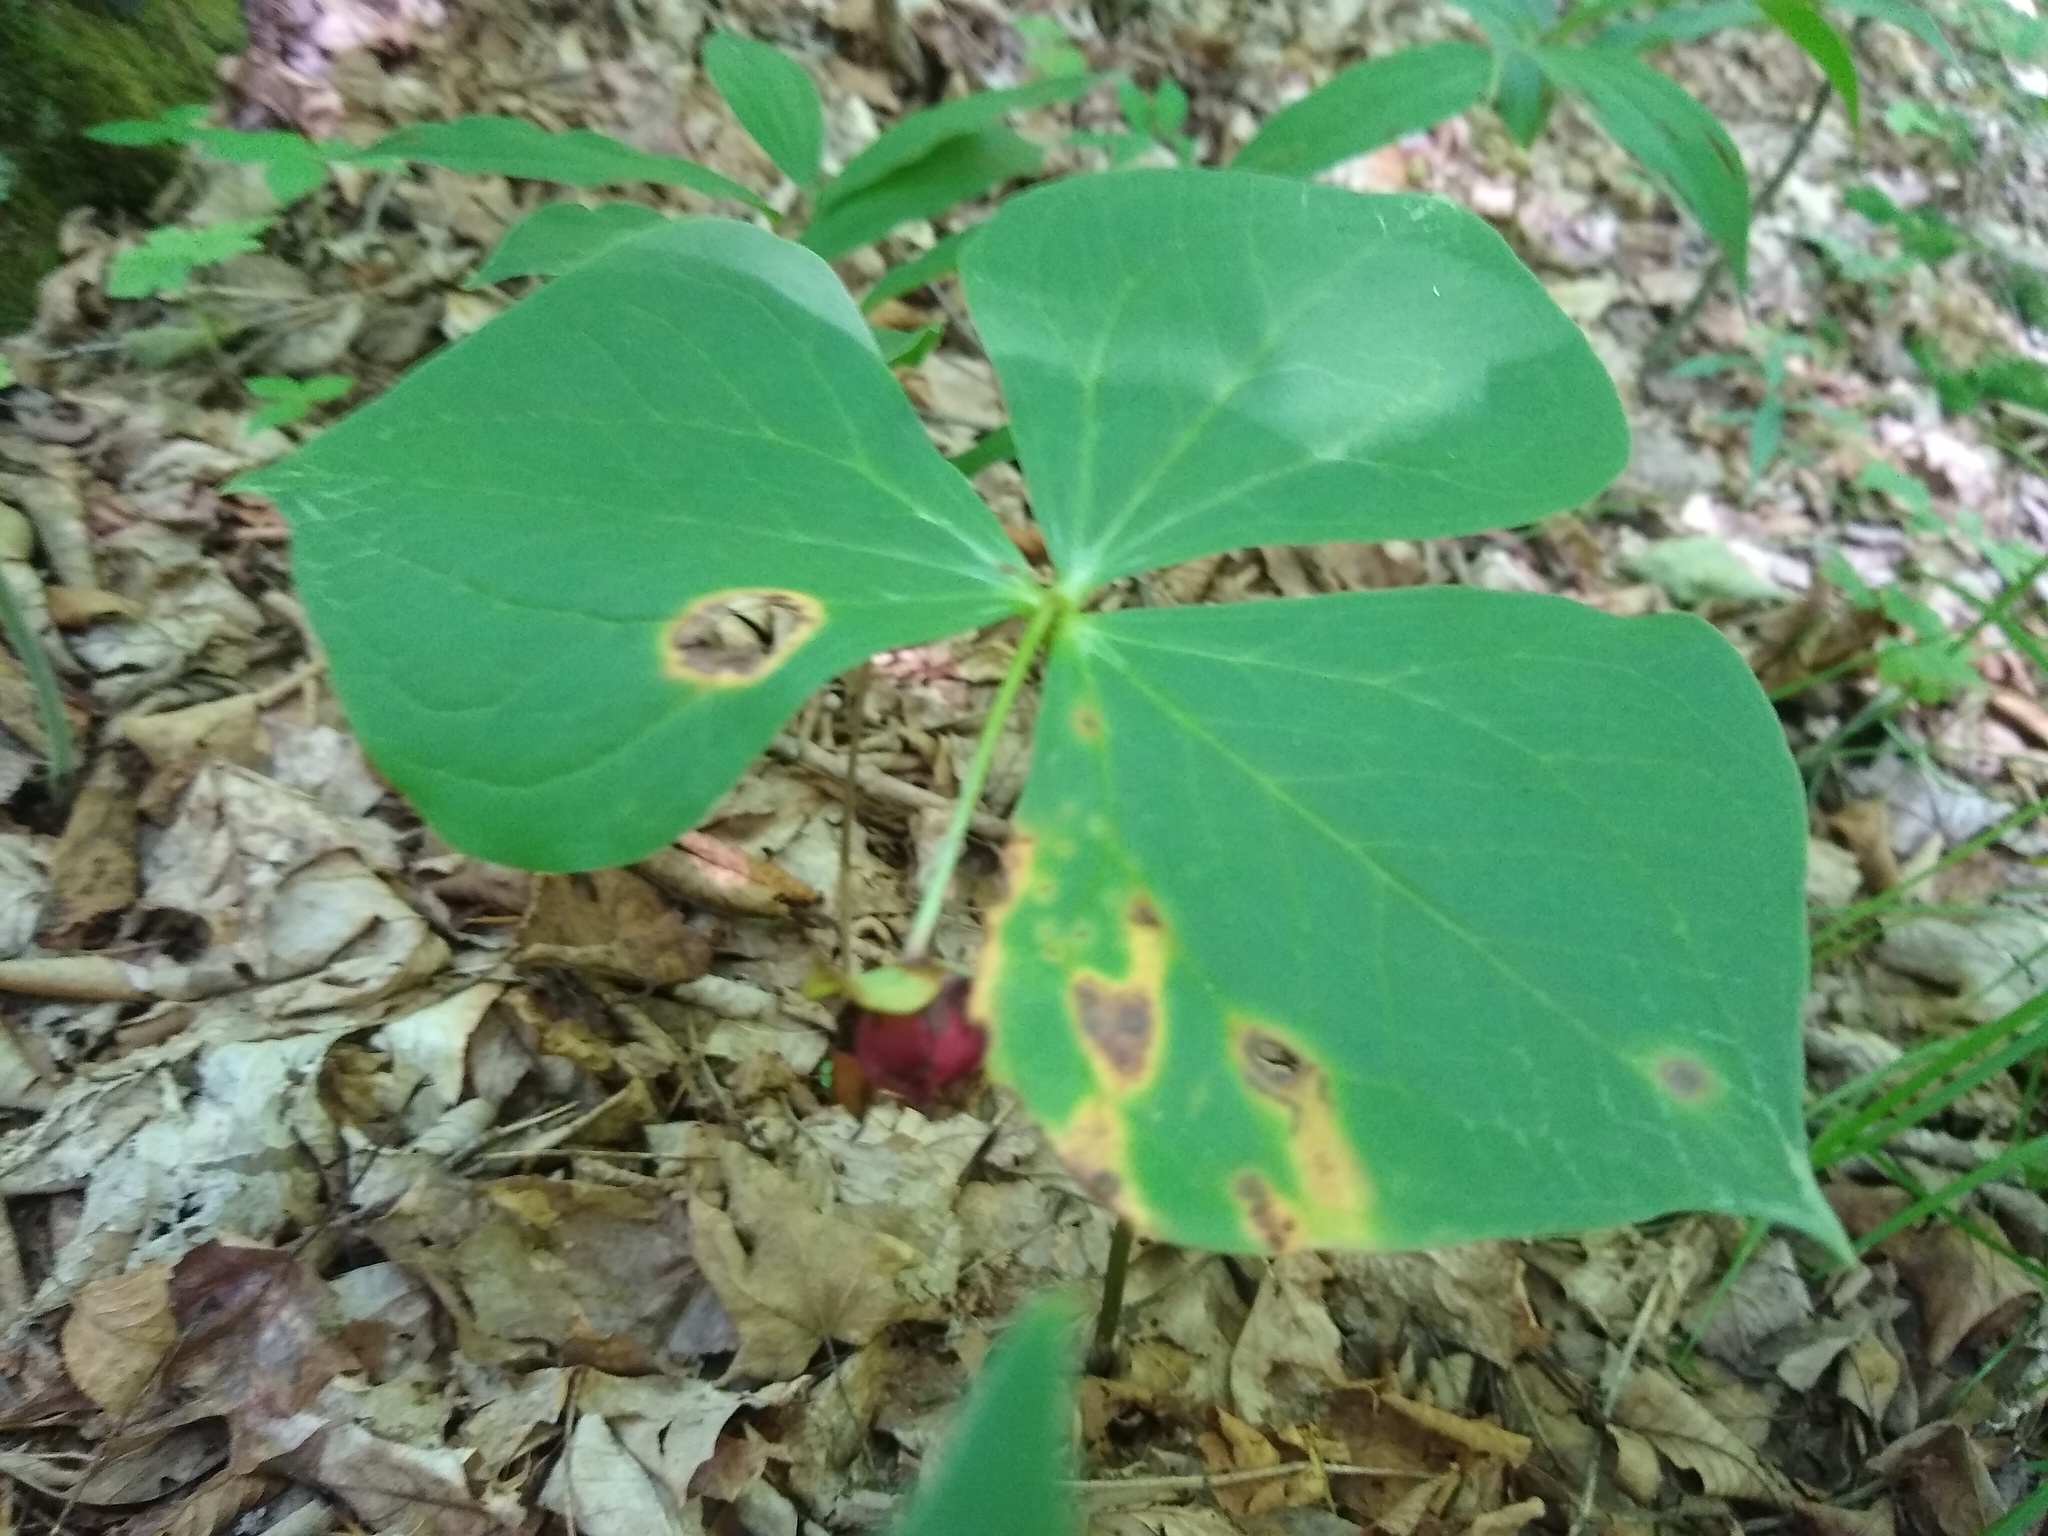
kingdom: Plantae
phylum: Tracheophyta
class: Liliopsida
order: Liliales
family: Melanthiaceae
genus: Trillium
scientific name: Trillium erectum
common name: Purple trillium
